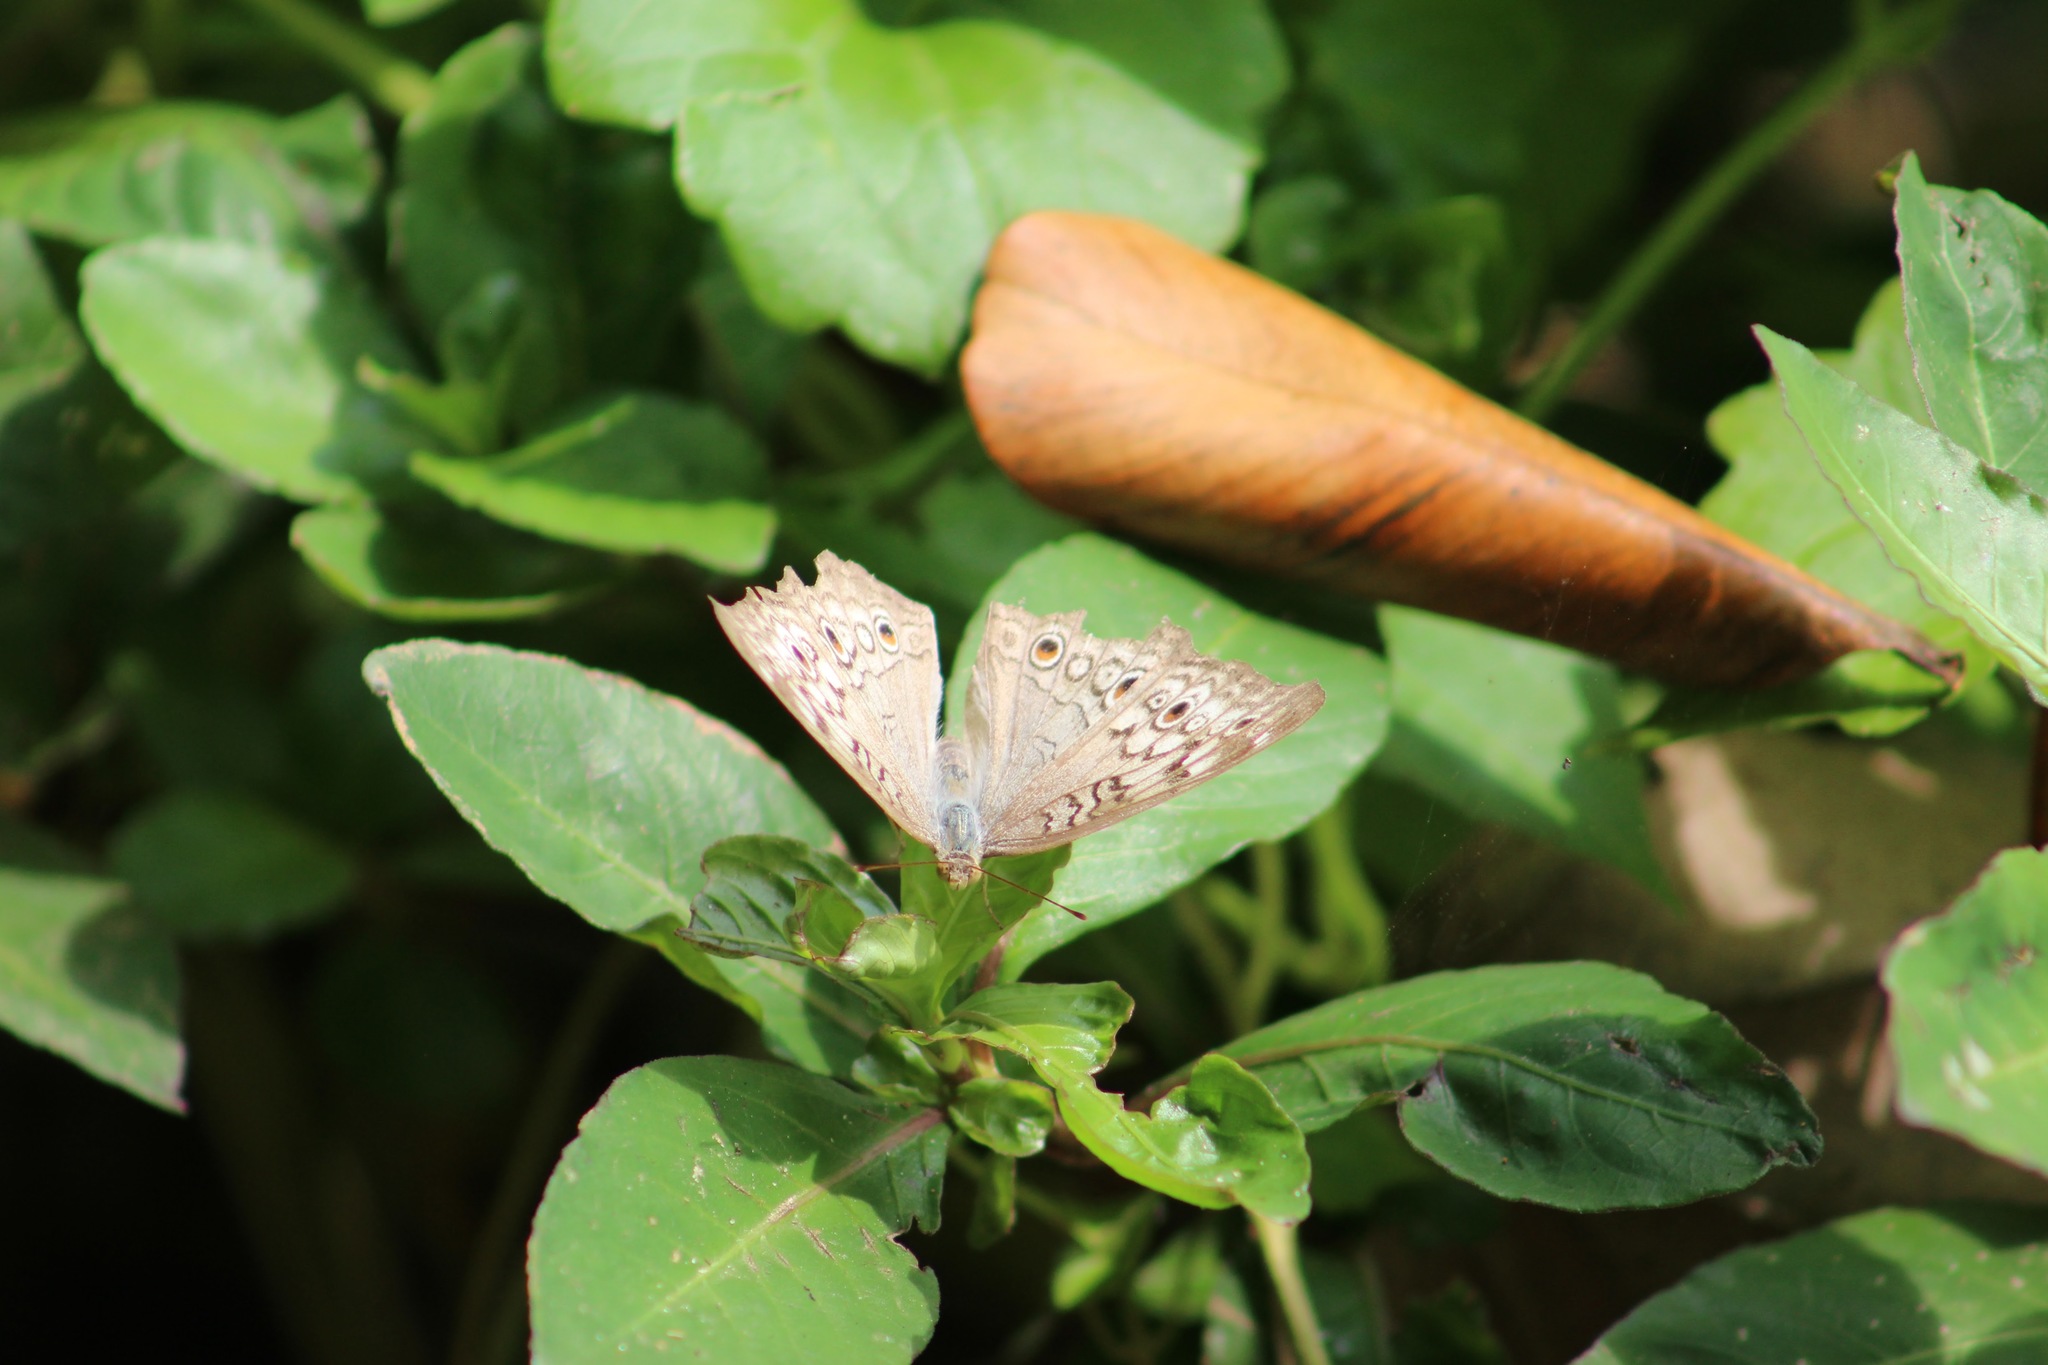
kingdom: Animalia
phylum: Arthropoda
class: Insecta
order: Lepidoptera
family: Nymphalidae
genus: Junonia
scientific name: Junonia atlites
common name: Grey pansy
